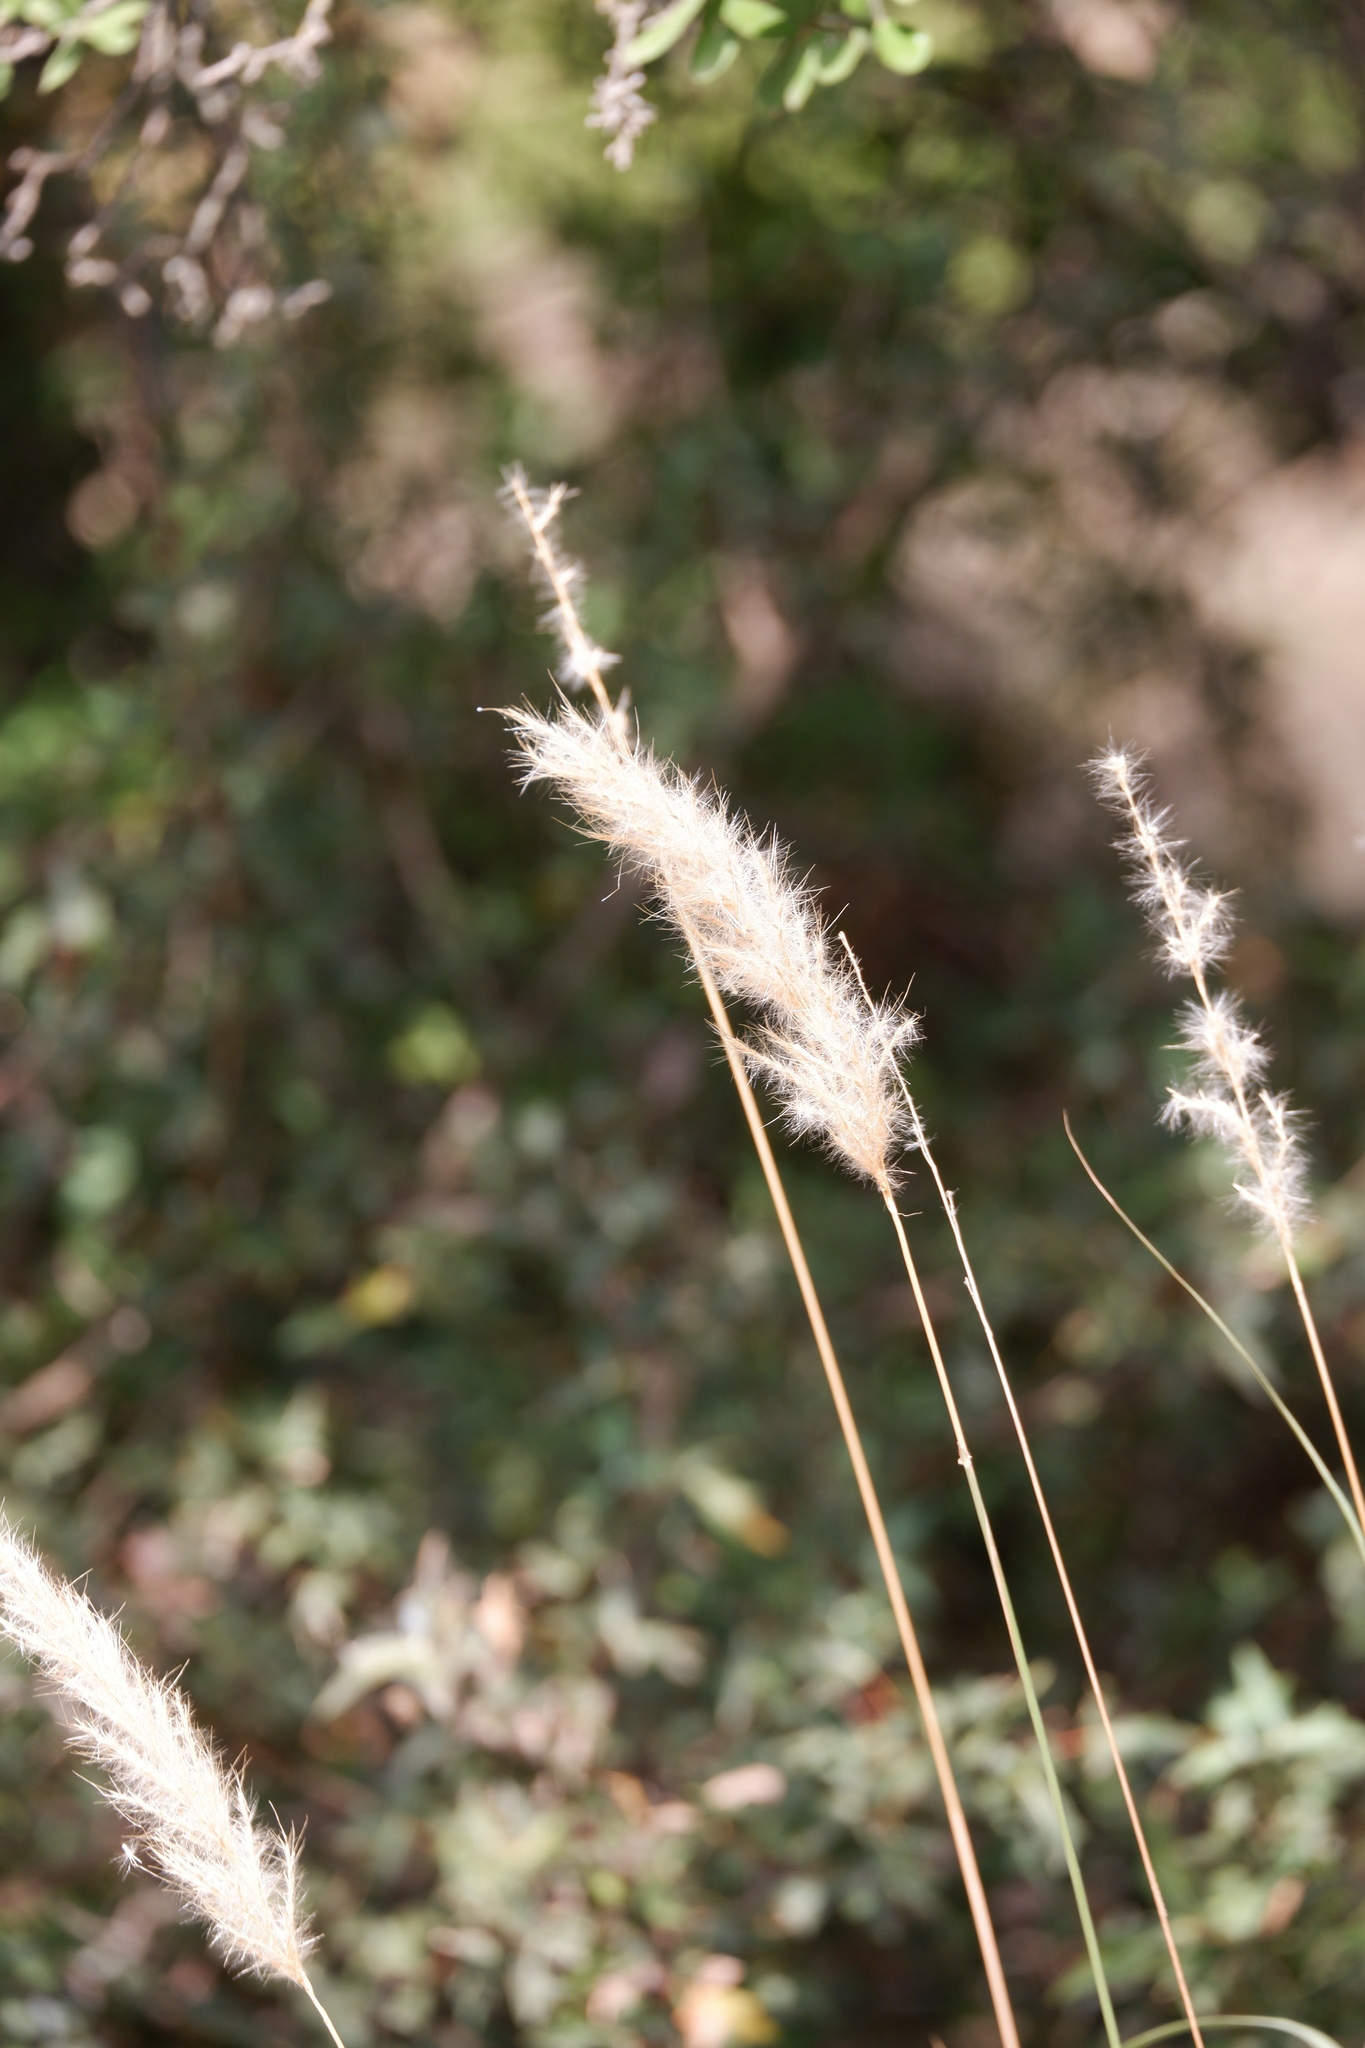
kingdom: Plantae
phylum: Tracheophyta
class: Liliopsida
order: Poales
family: Poaceae
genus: Bothriochloa
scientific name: Bothriochloa torreyana
